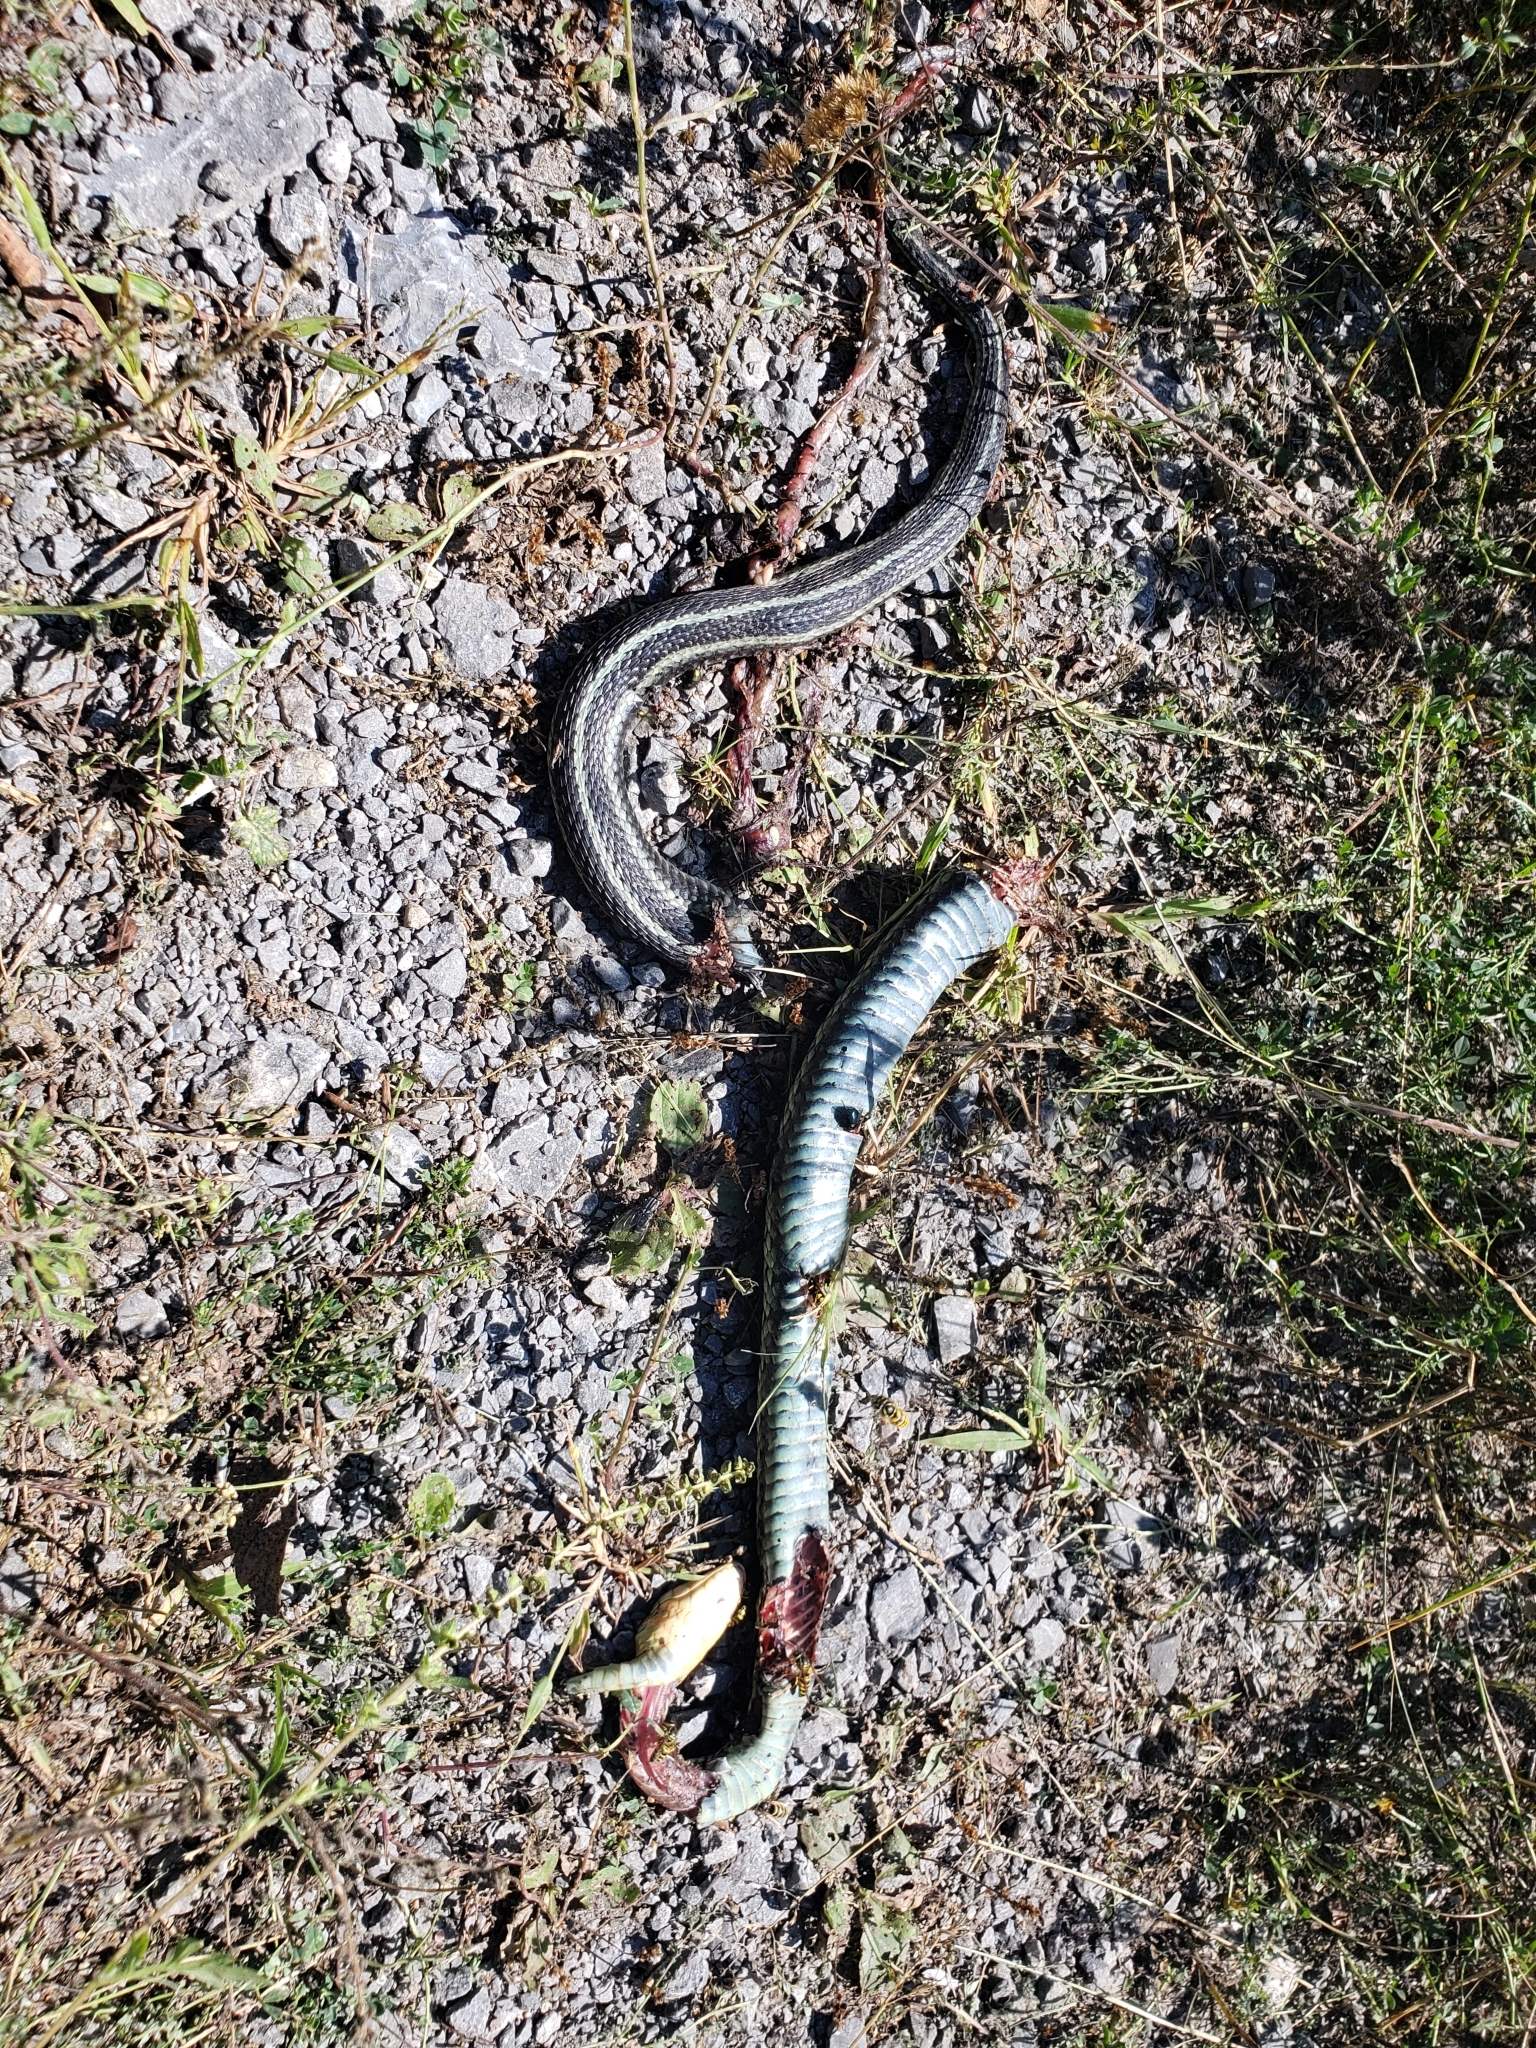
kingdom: Animalia
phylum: Chordata
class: Squamata
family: Colubridae
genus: Thamnophis
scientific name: Thamnophis sirtalis
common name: Common garter snake
